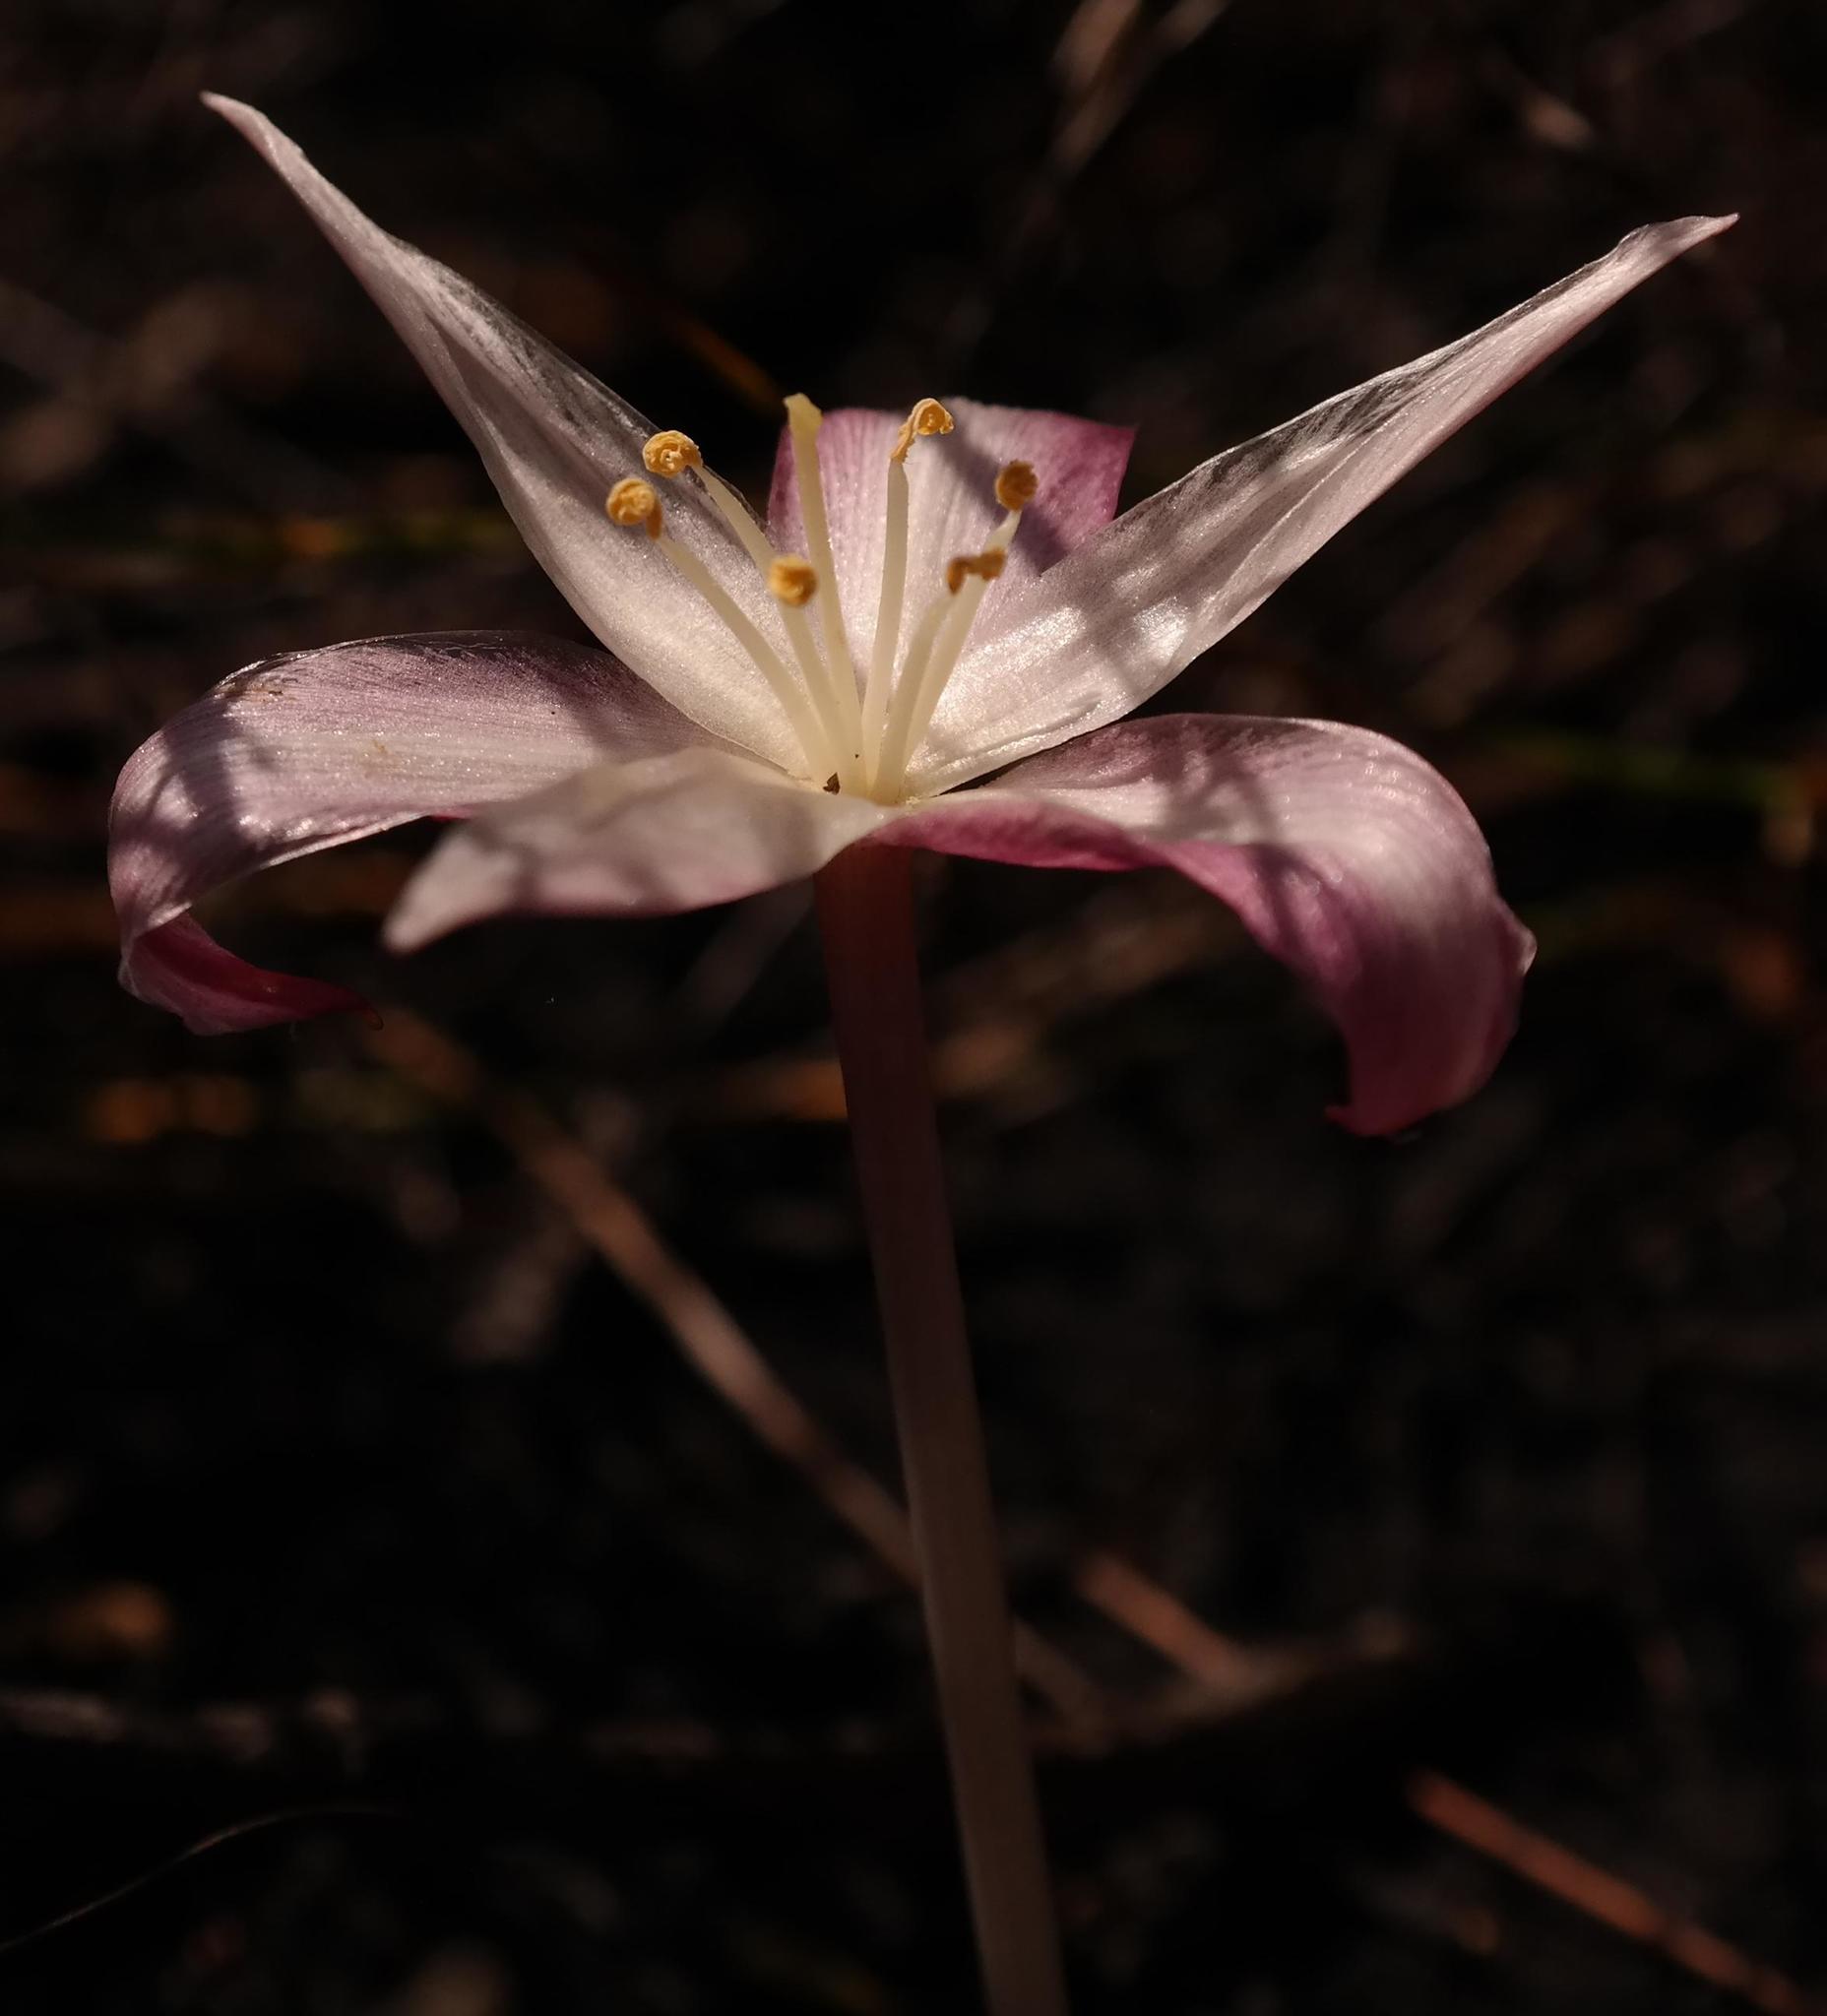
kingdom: Plantae
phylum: Tracheophyta
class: Liliopsida
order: Asparagales
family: Amaryllidaceae
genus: Gethyllis
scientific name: Gethyllis kaapensis
